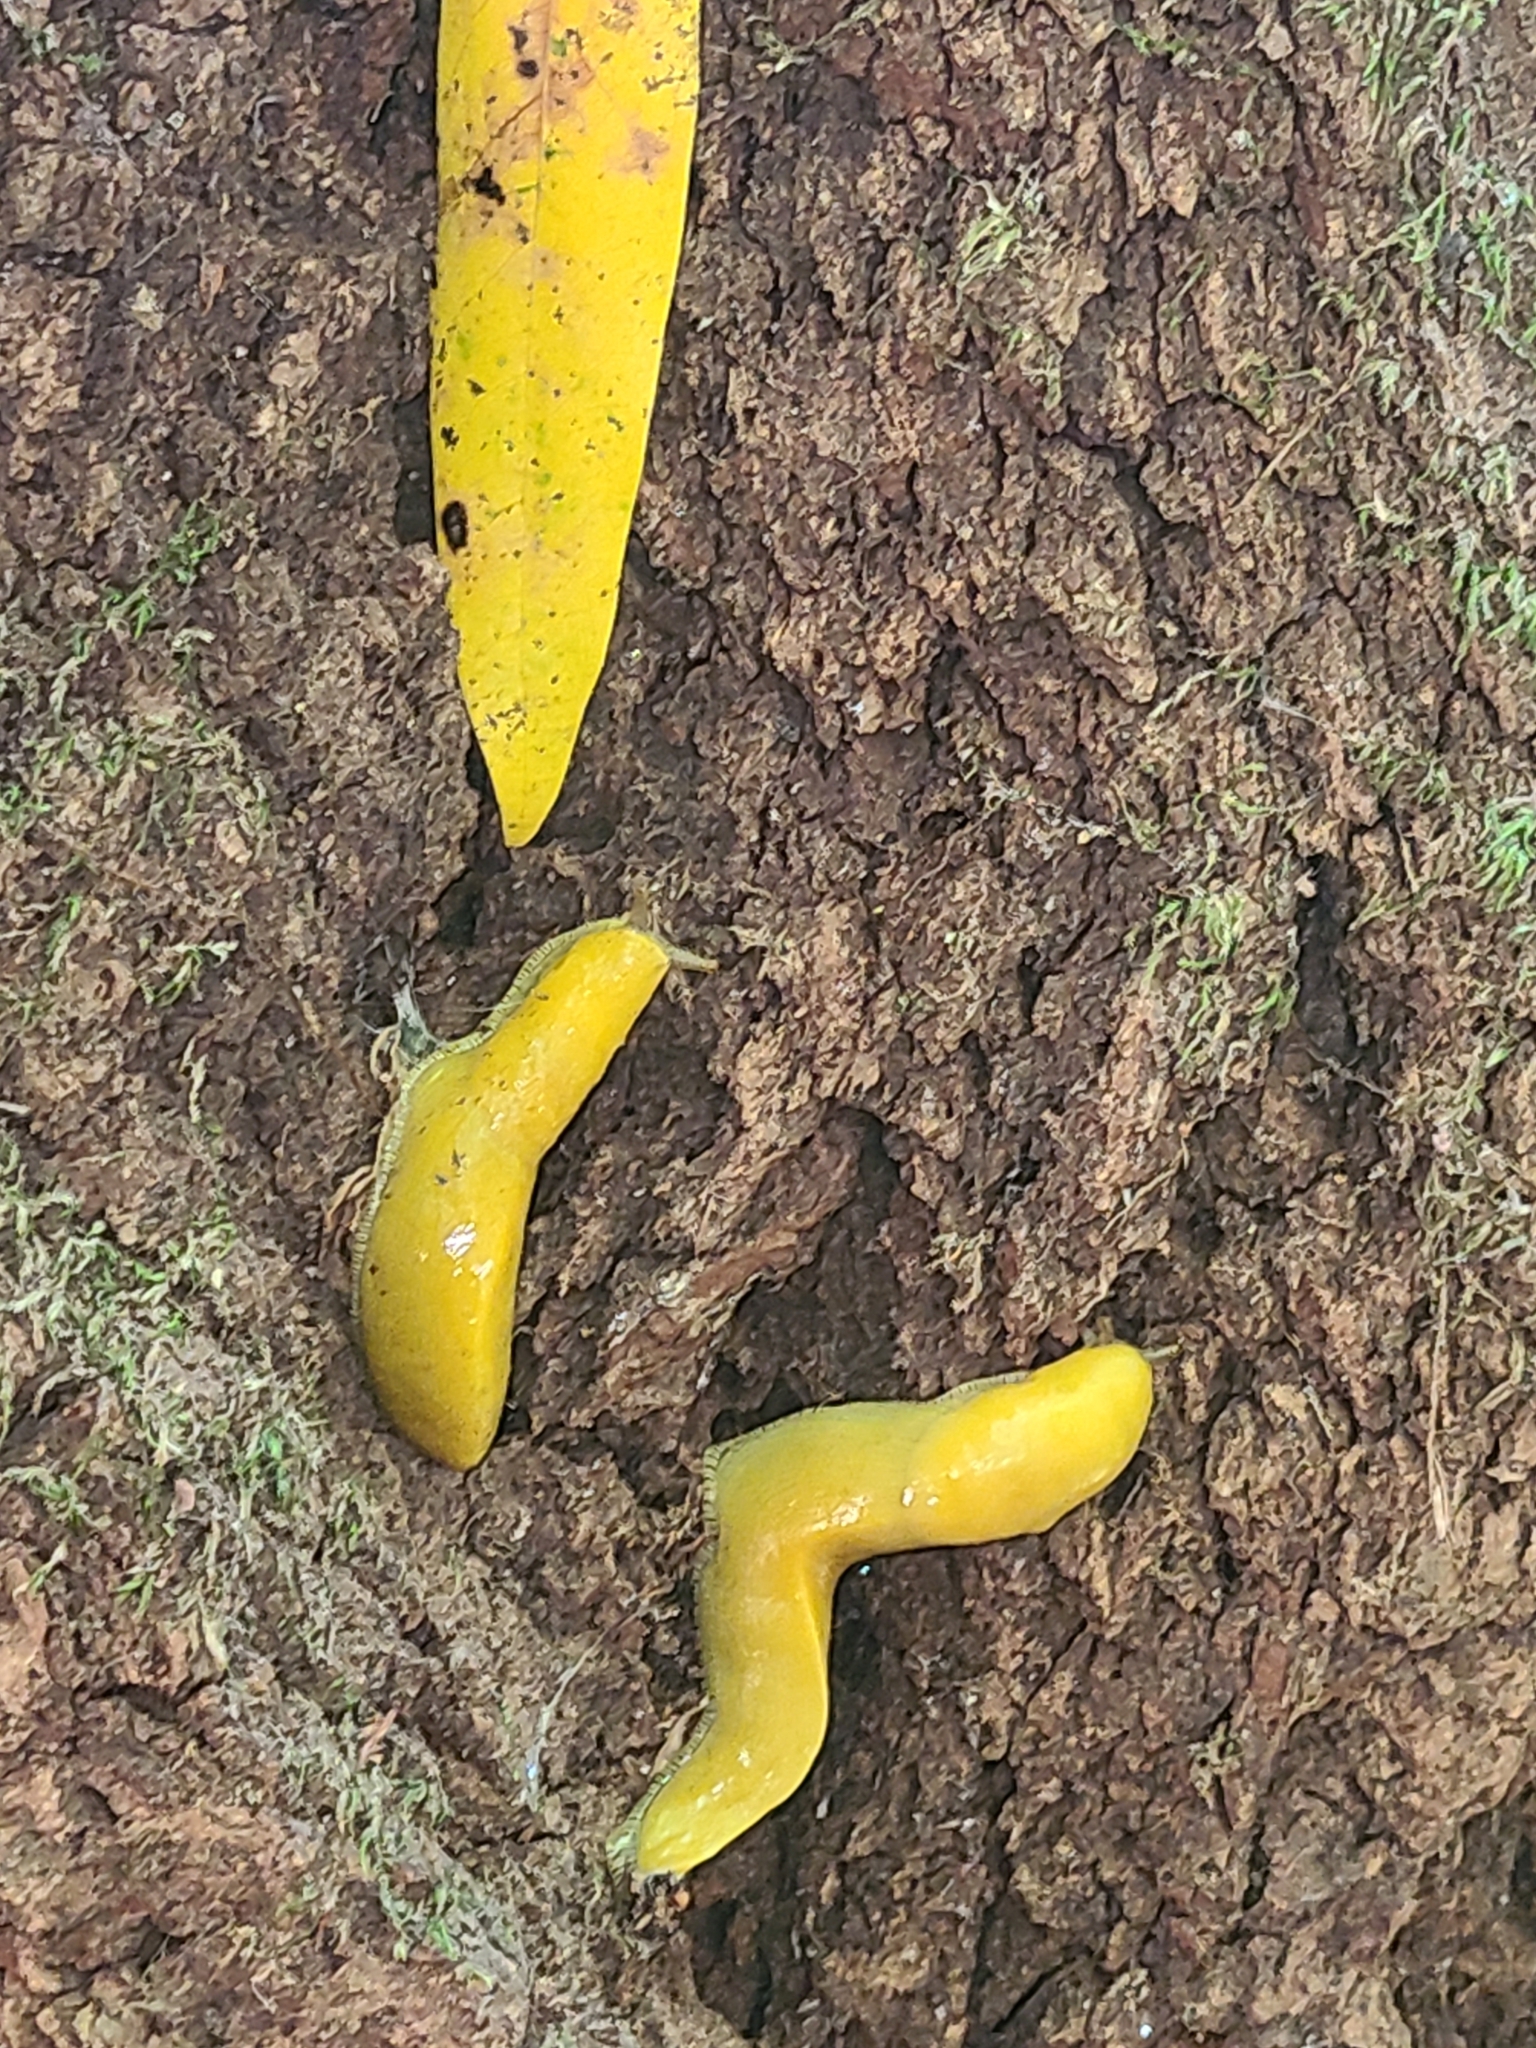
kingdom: Animalia
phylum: Mollusca
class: Gastropoda
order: Stylommatophora
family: Ariolimacidae
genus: Ariolimax
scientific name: Ariolimax dolichophallus
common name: Slender banana slug
